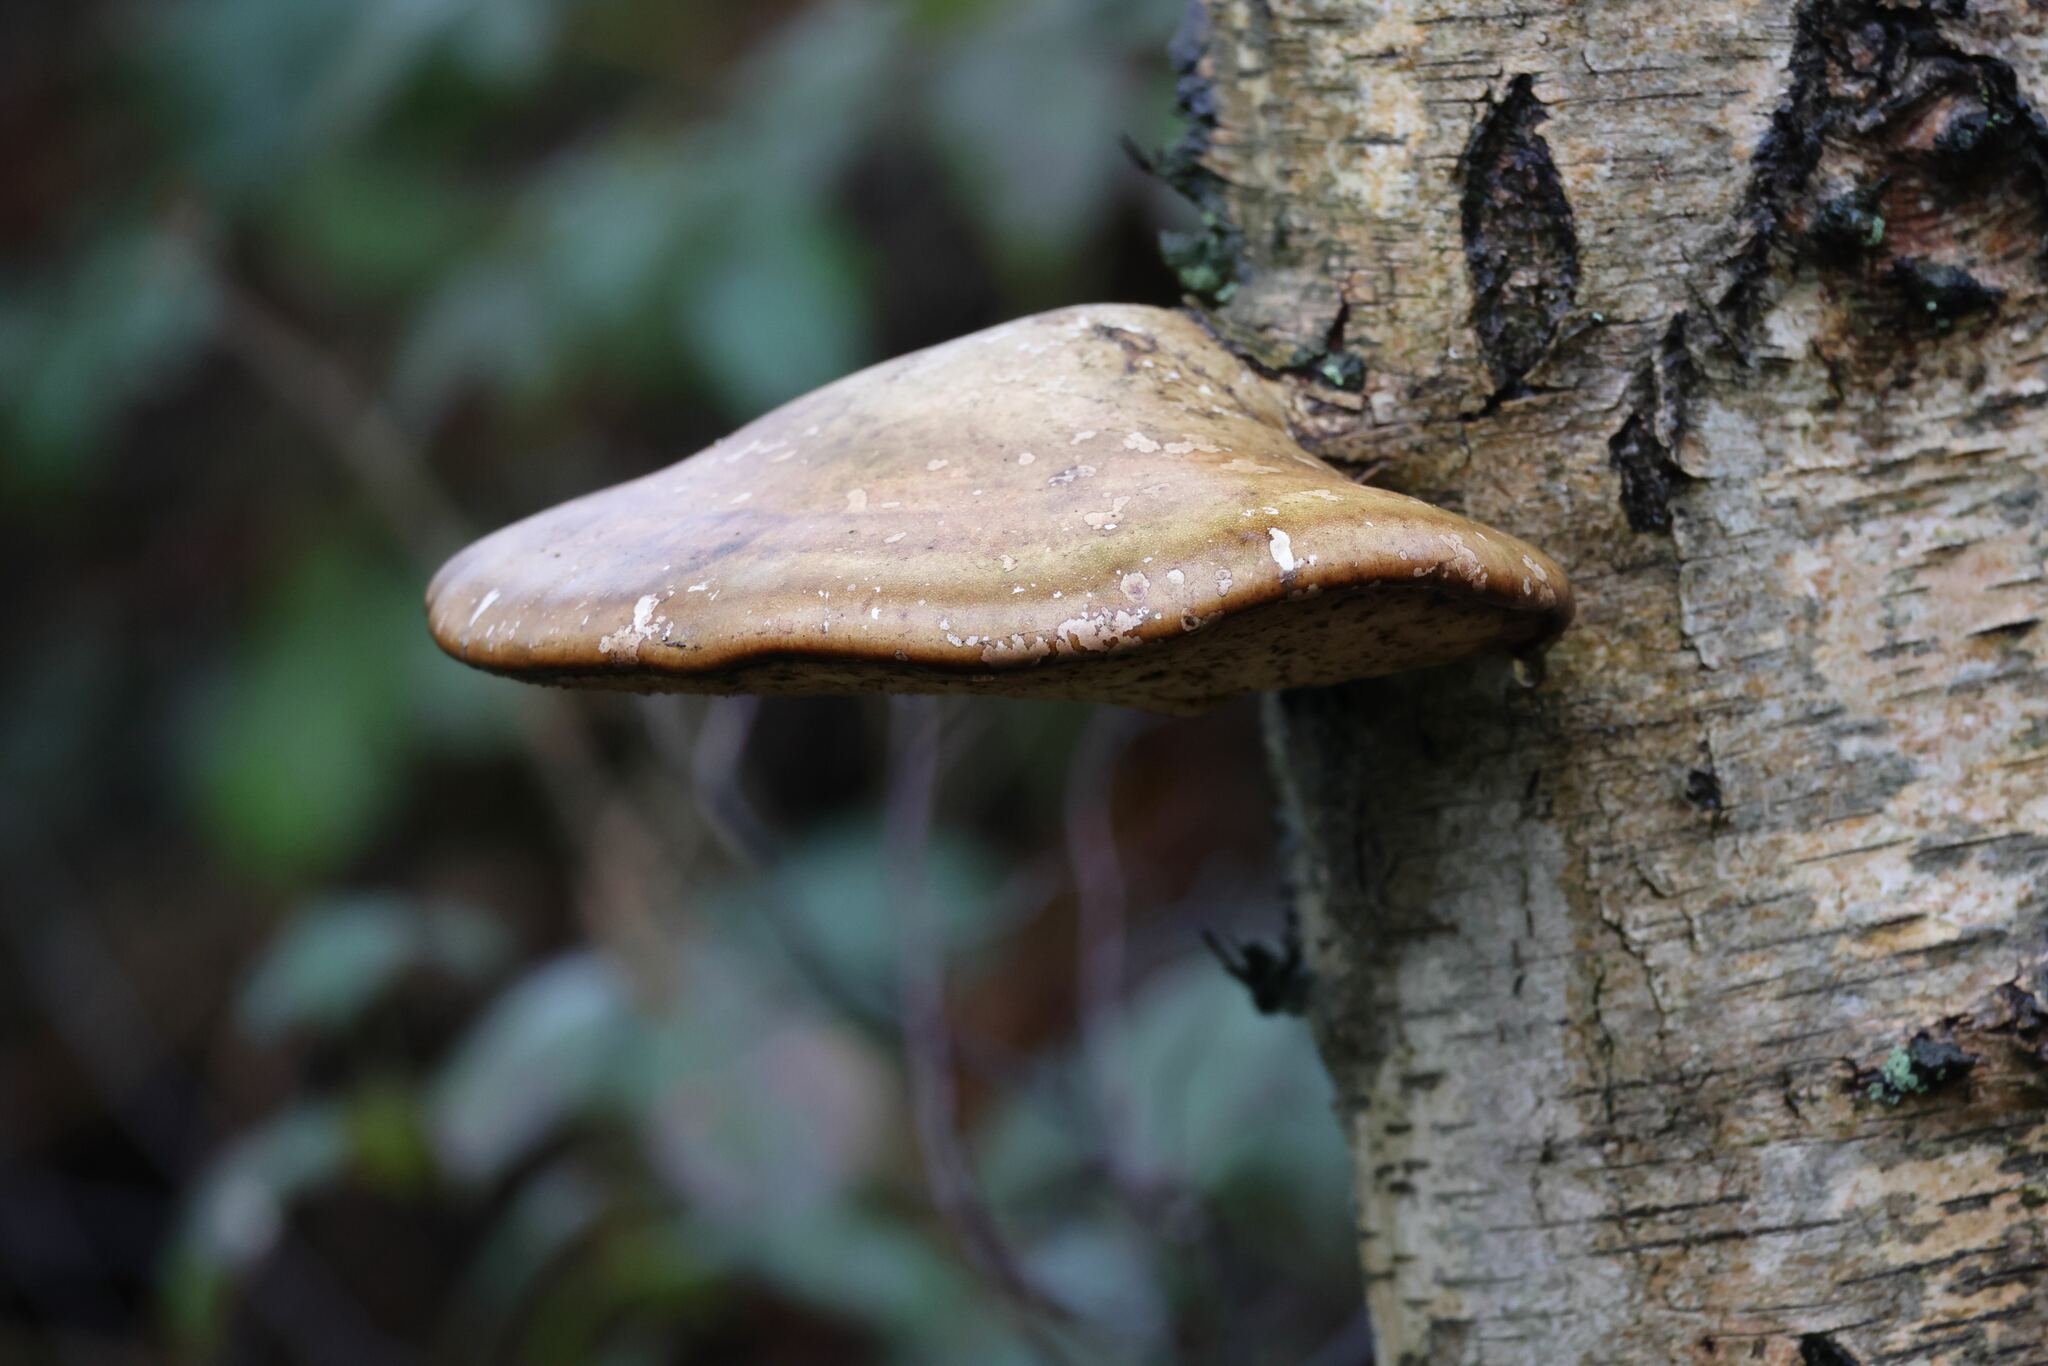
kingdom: Fungi
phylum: Basidiomycota
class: Agaricomycetes
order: Polyporales
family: Fomitopsidaceae
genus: Fomitopsis
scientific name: Fomitopsis betulina
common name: Birch polypore
